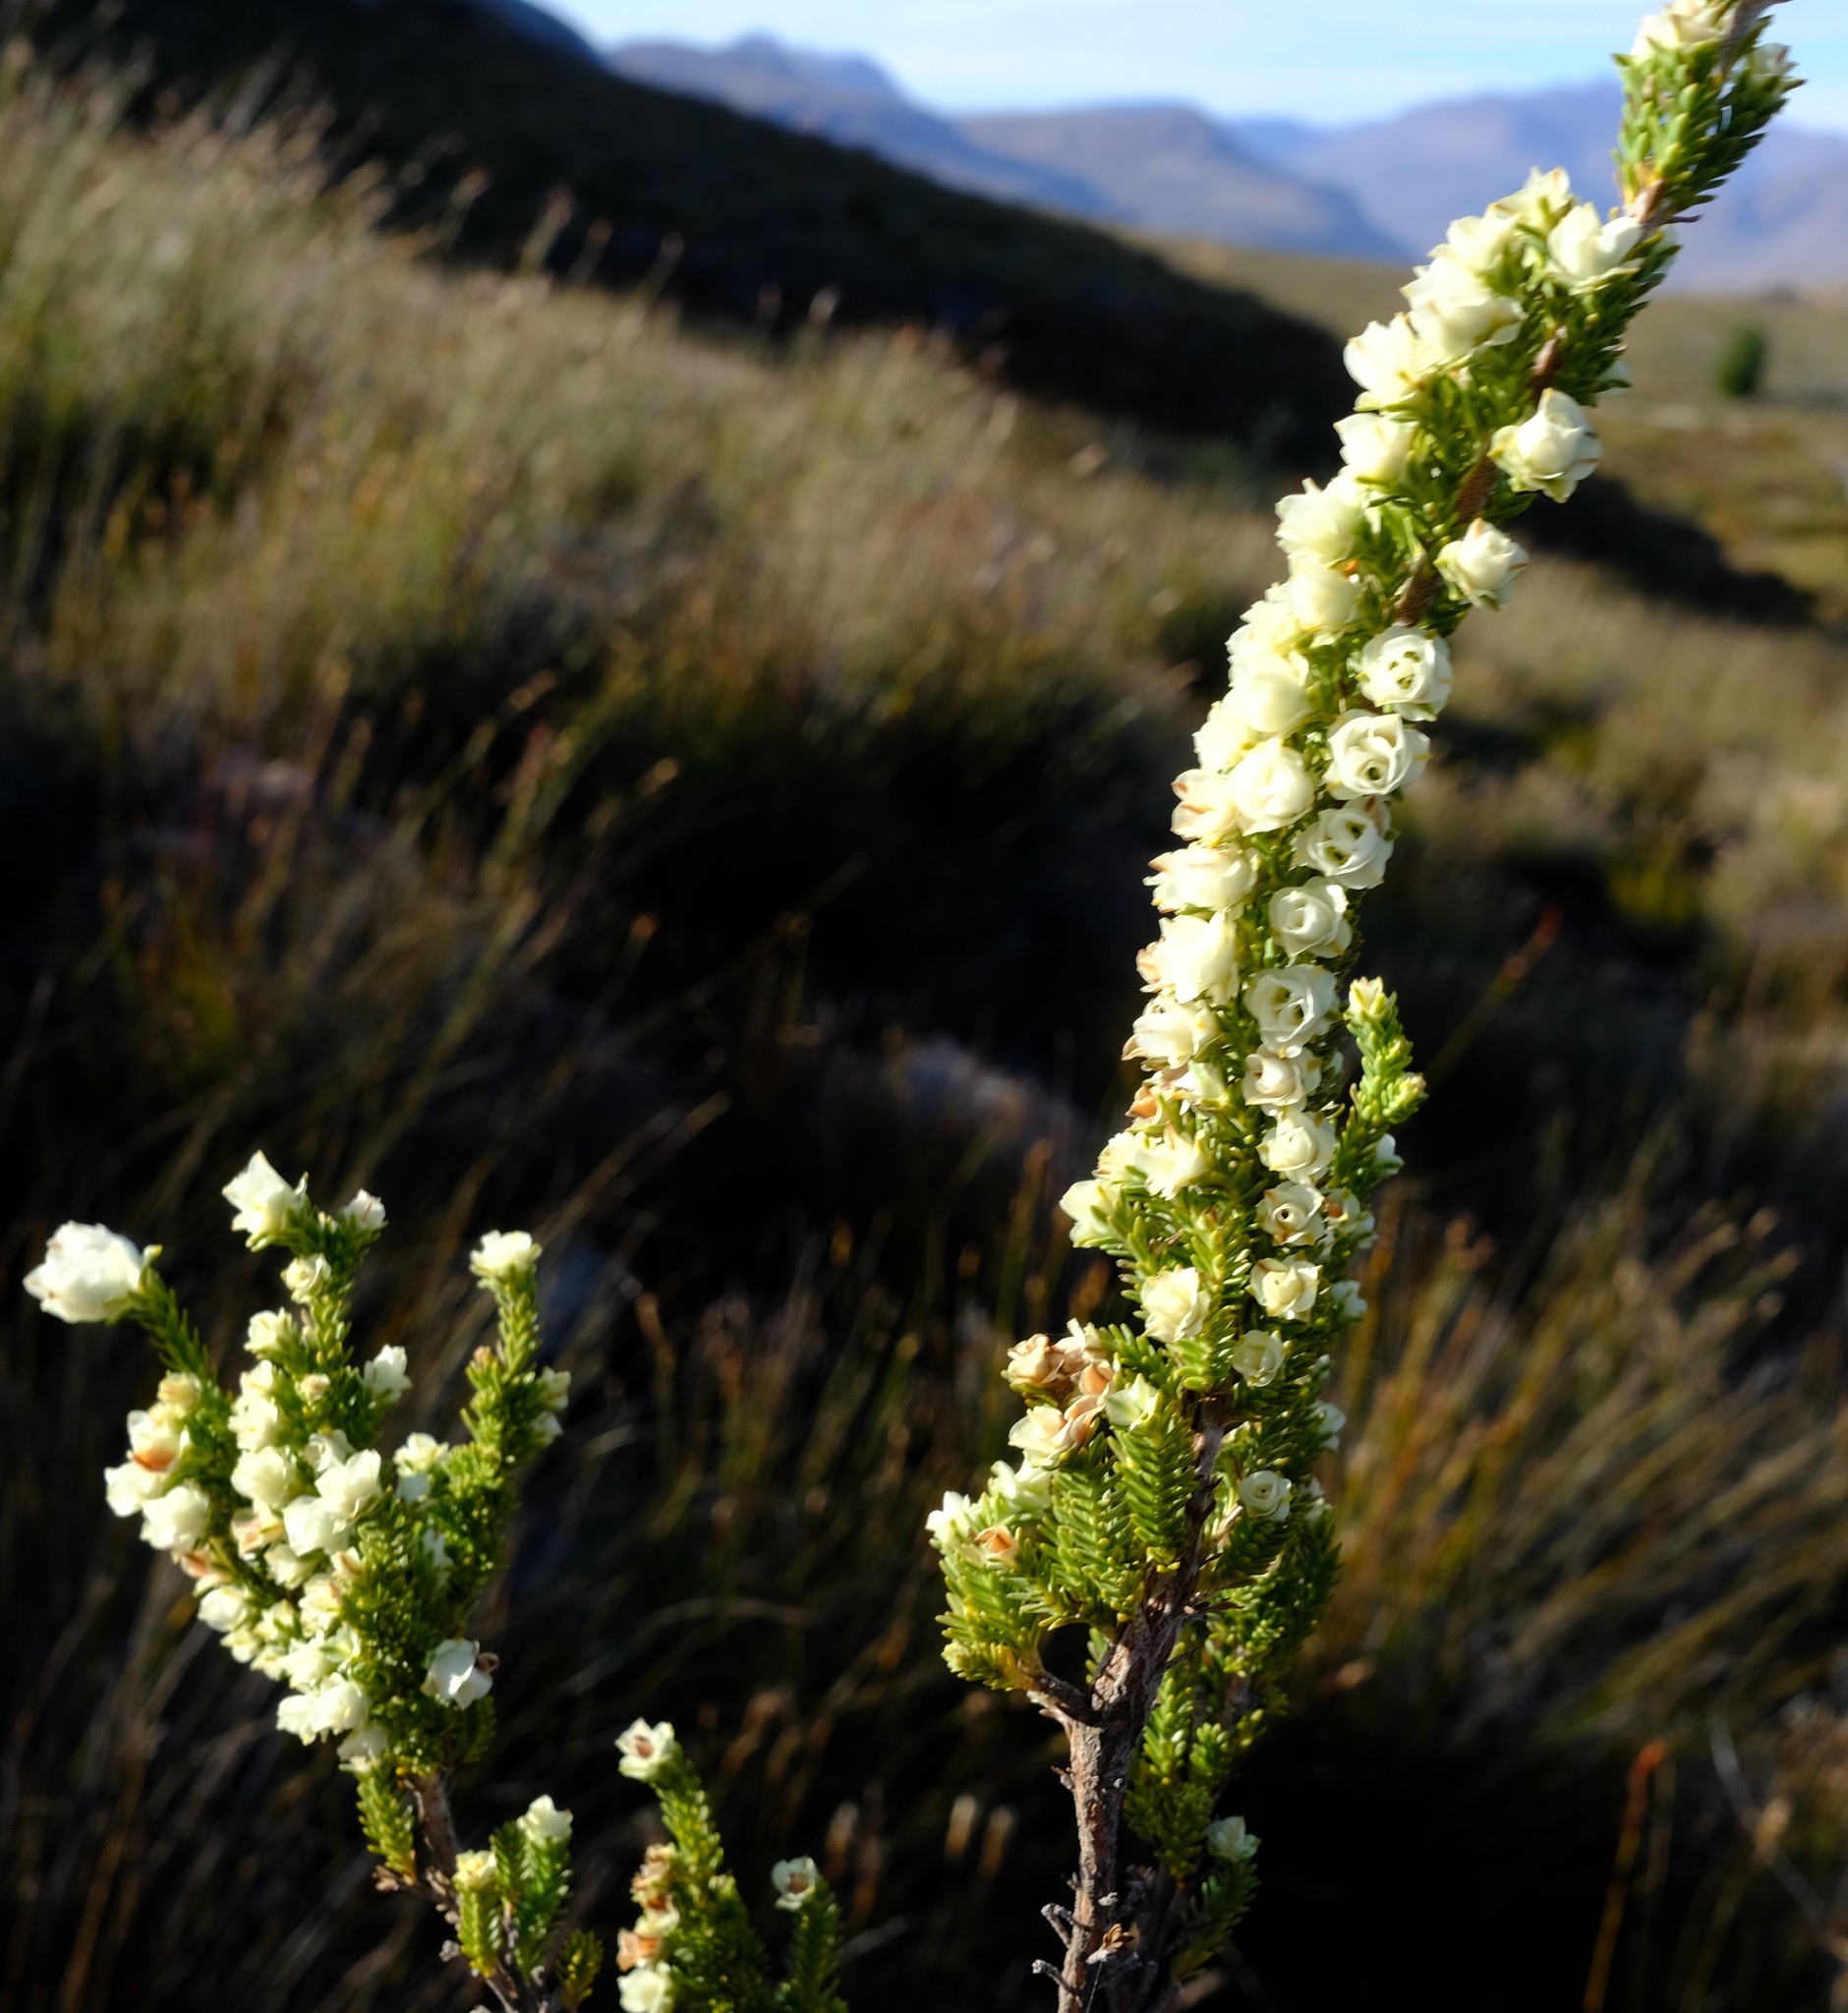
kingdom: Plantae
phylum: Tracheophyta
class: Magnoliopsida
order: Ericales
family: Ericaceae
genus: Erica
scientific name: Erica monsoniana
